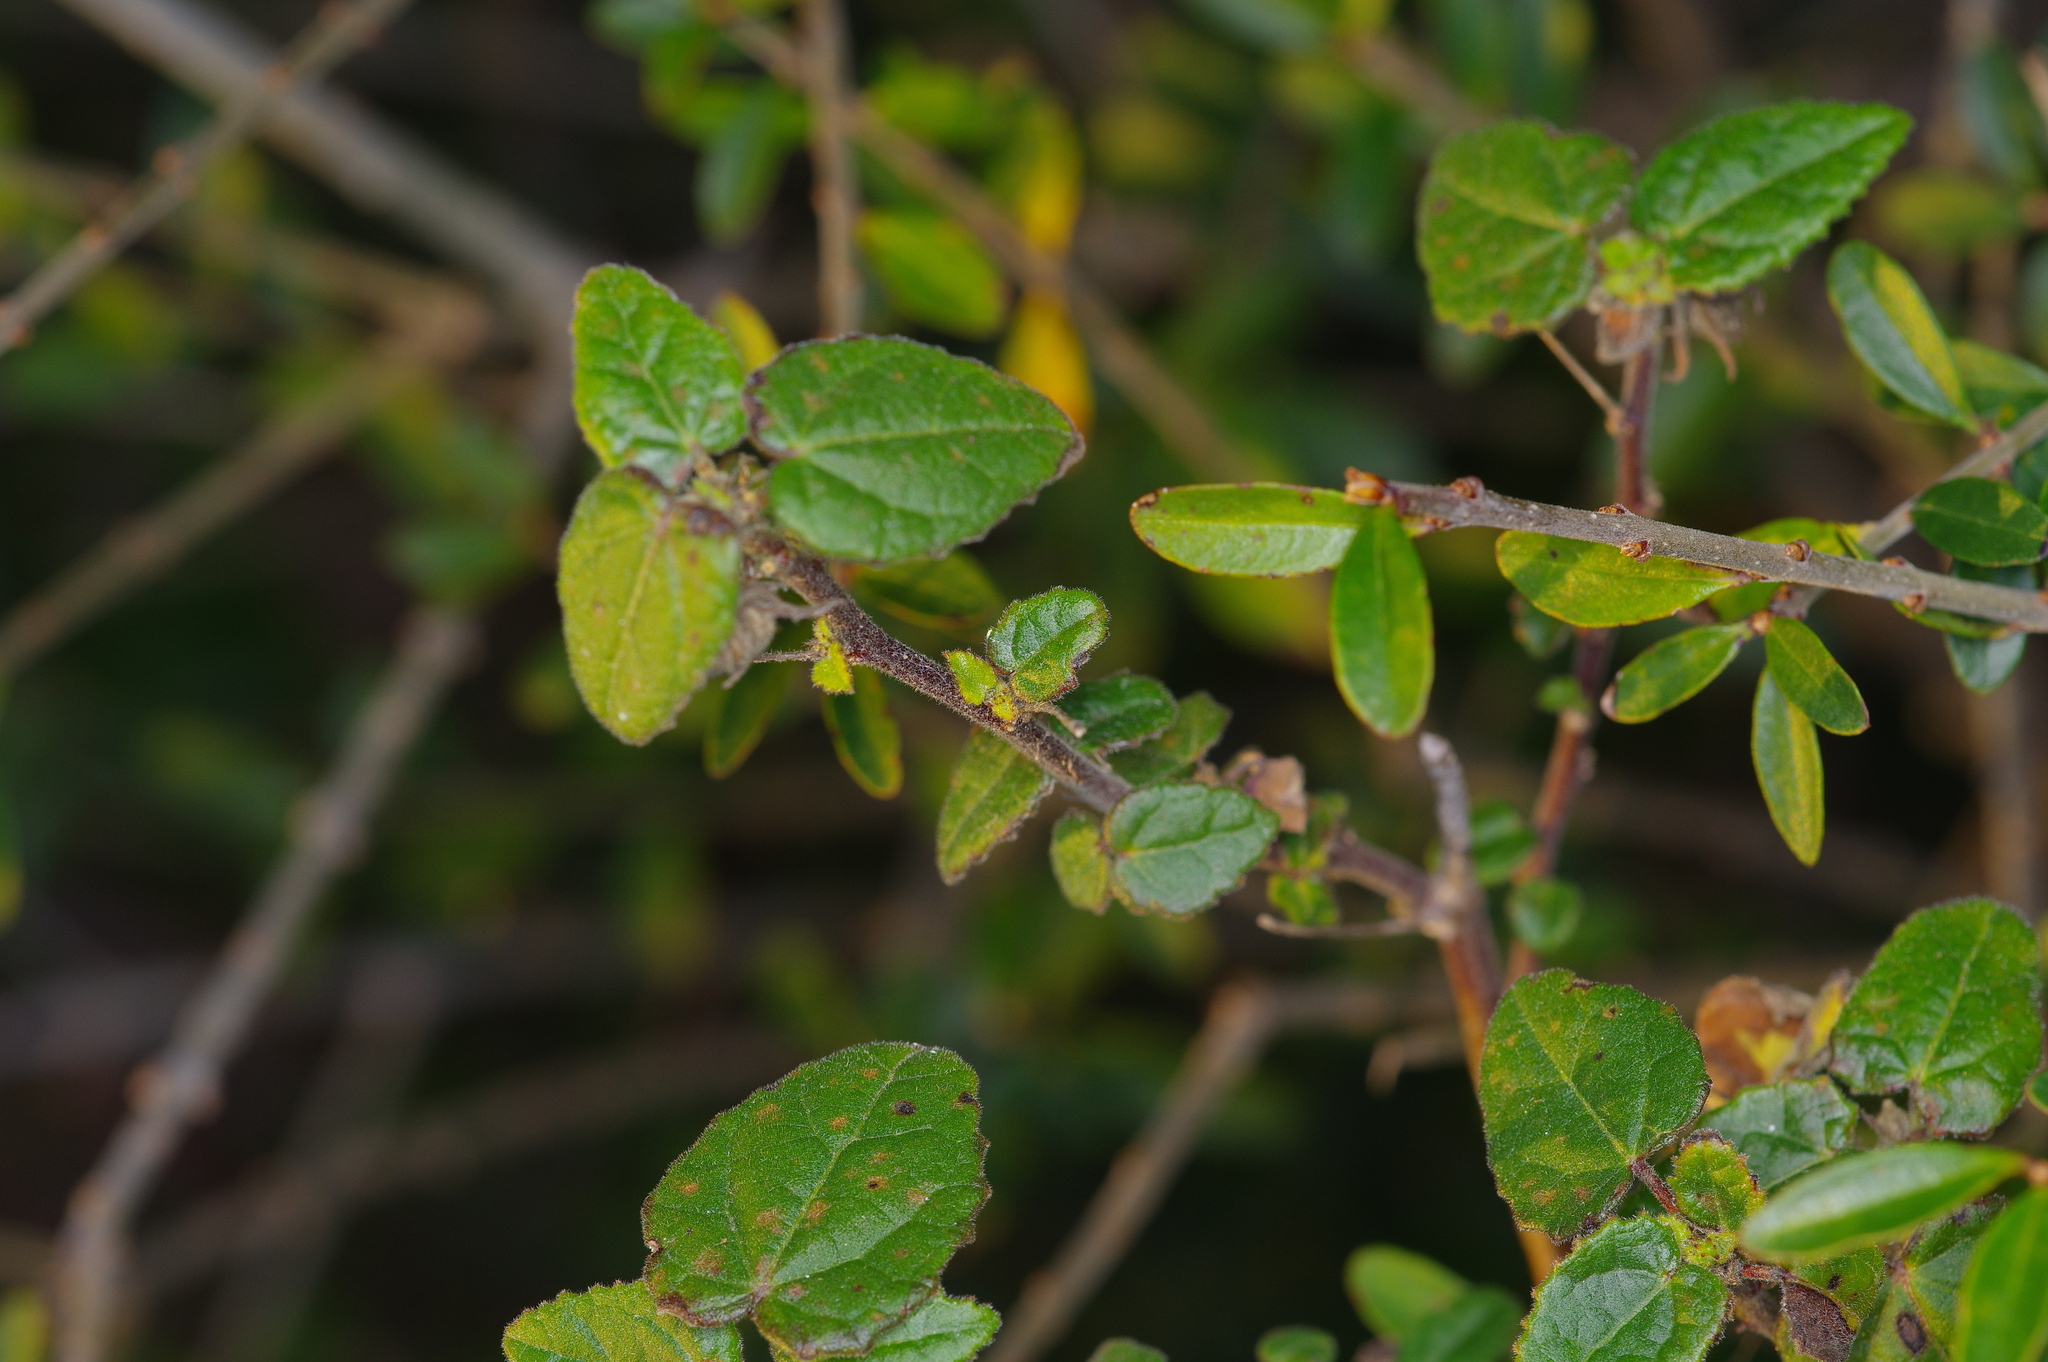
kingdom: Plantae
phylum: Tracheophyta
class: Magnoliopsida
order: Malvales
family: Malvaceae
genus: Pavonia
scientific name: Pavonia lasiopetala
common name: Texas swamp-mallow
